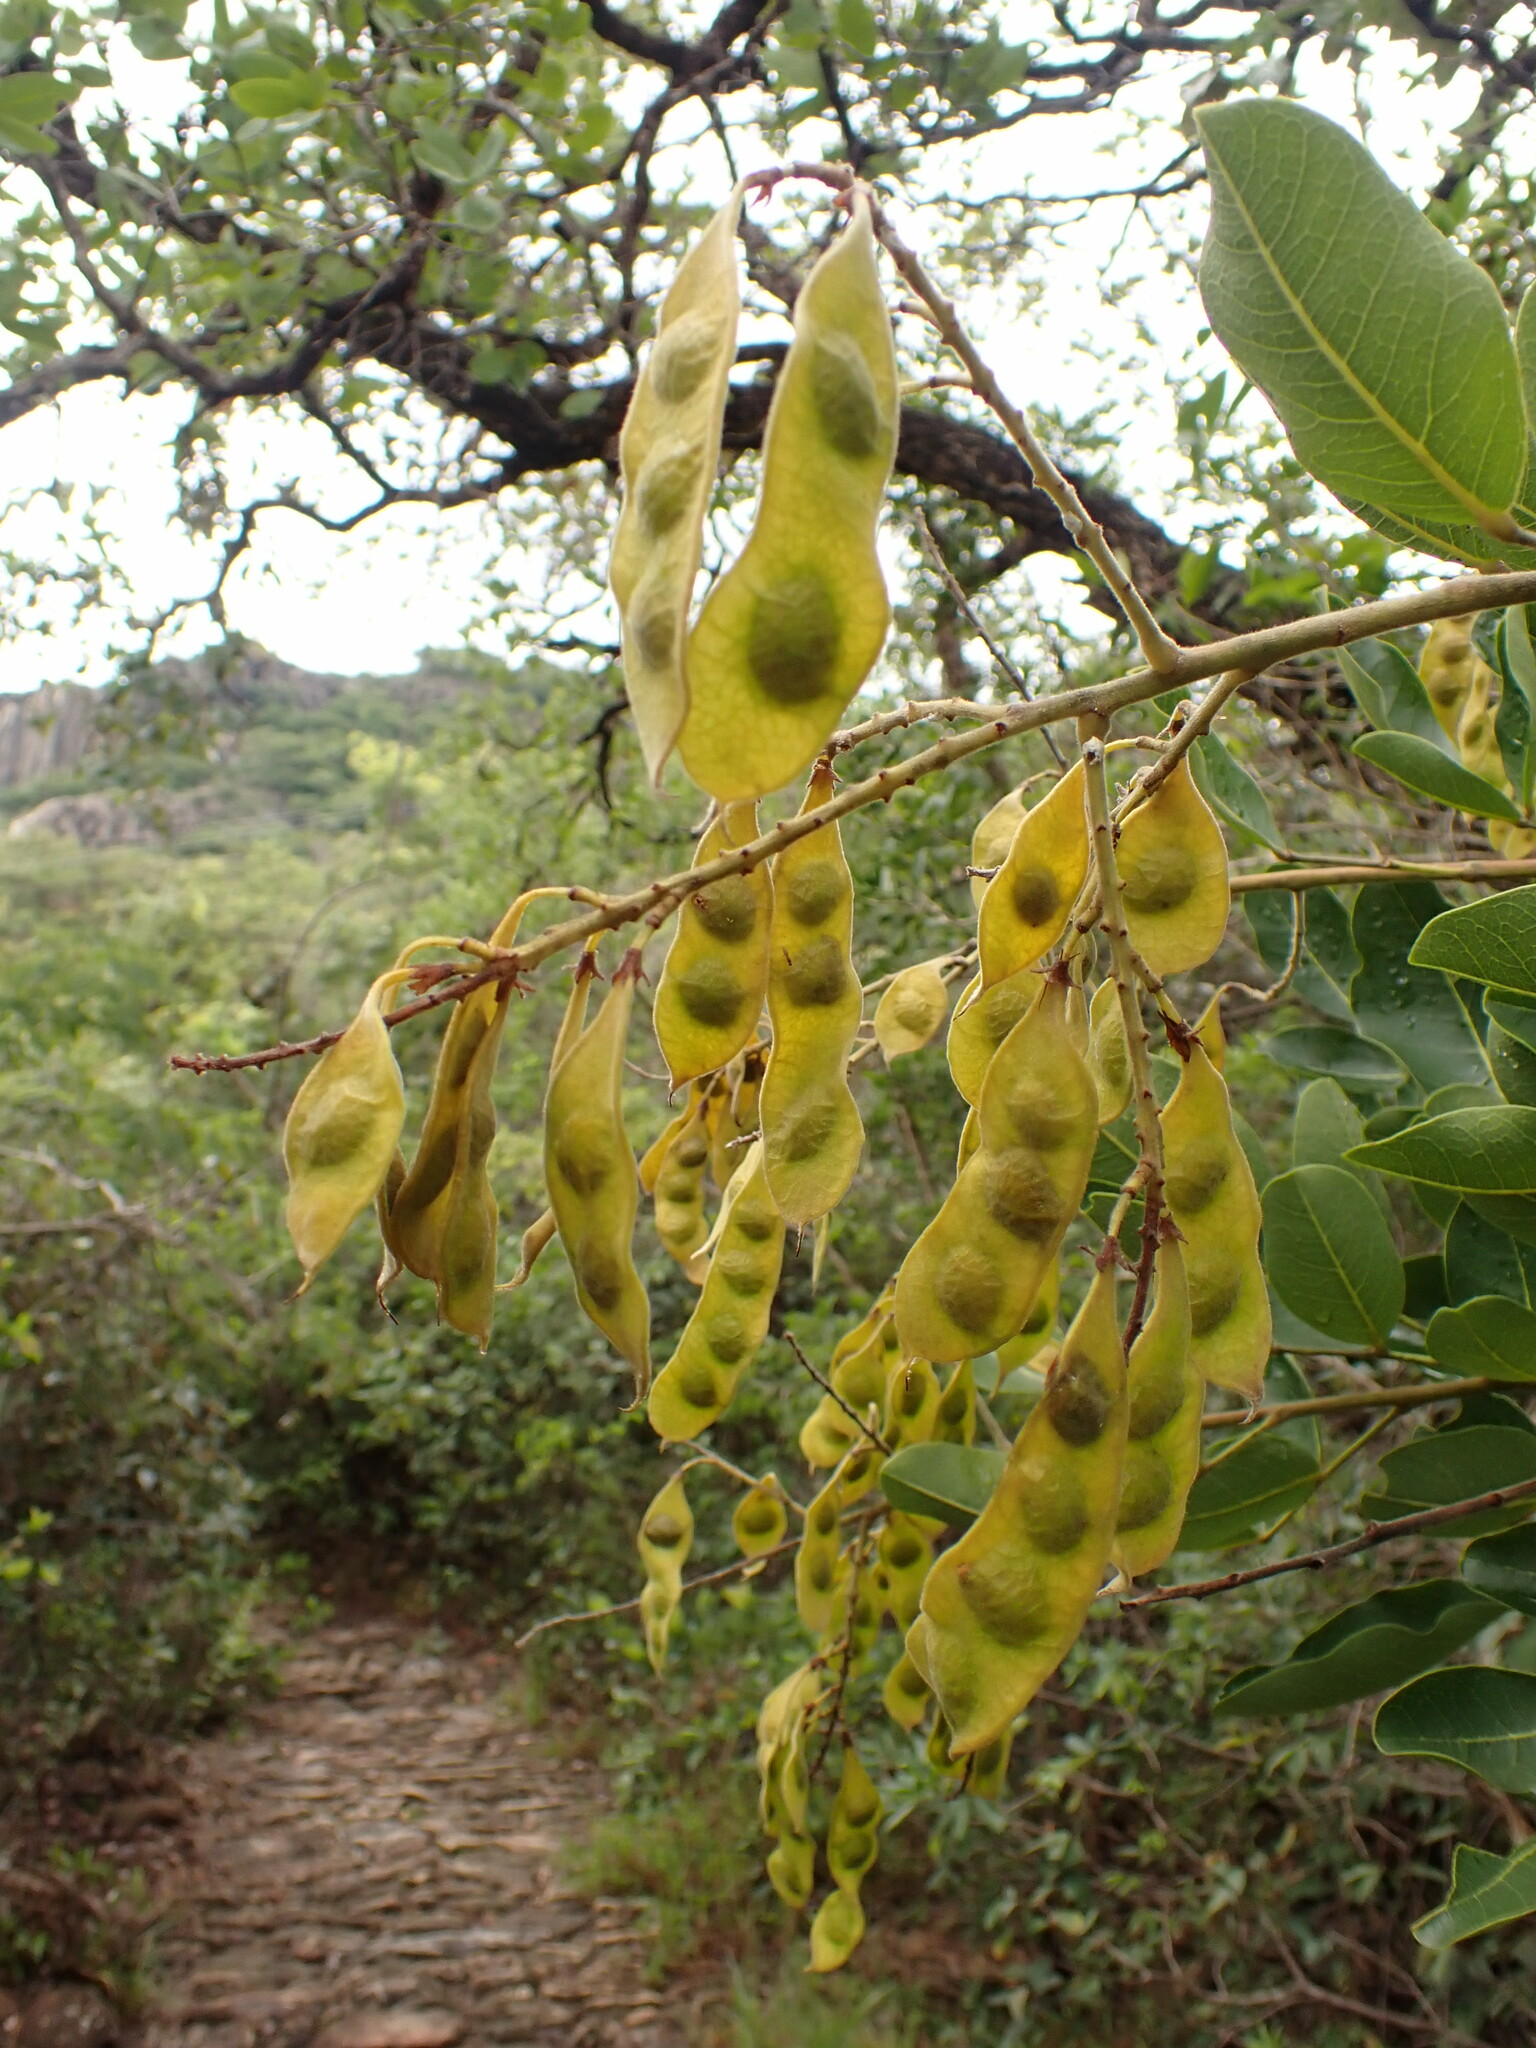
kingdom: Plantae
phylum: Tracheophyta
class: Magnoliopsida
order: Fabales
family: Fabaceae
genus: Leptolobium
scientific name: Leptolobium dasycarpum
